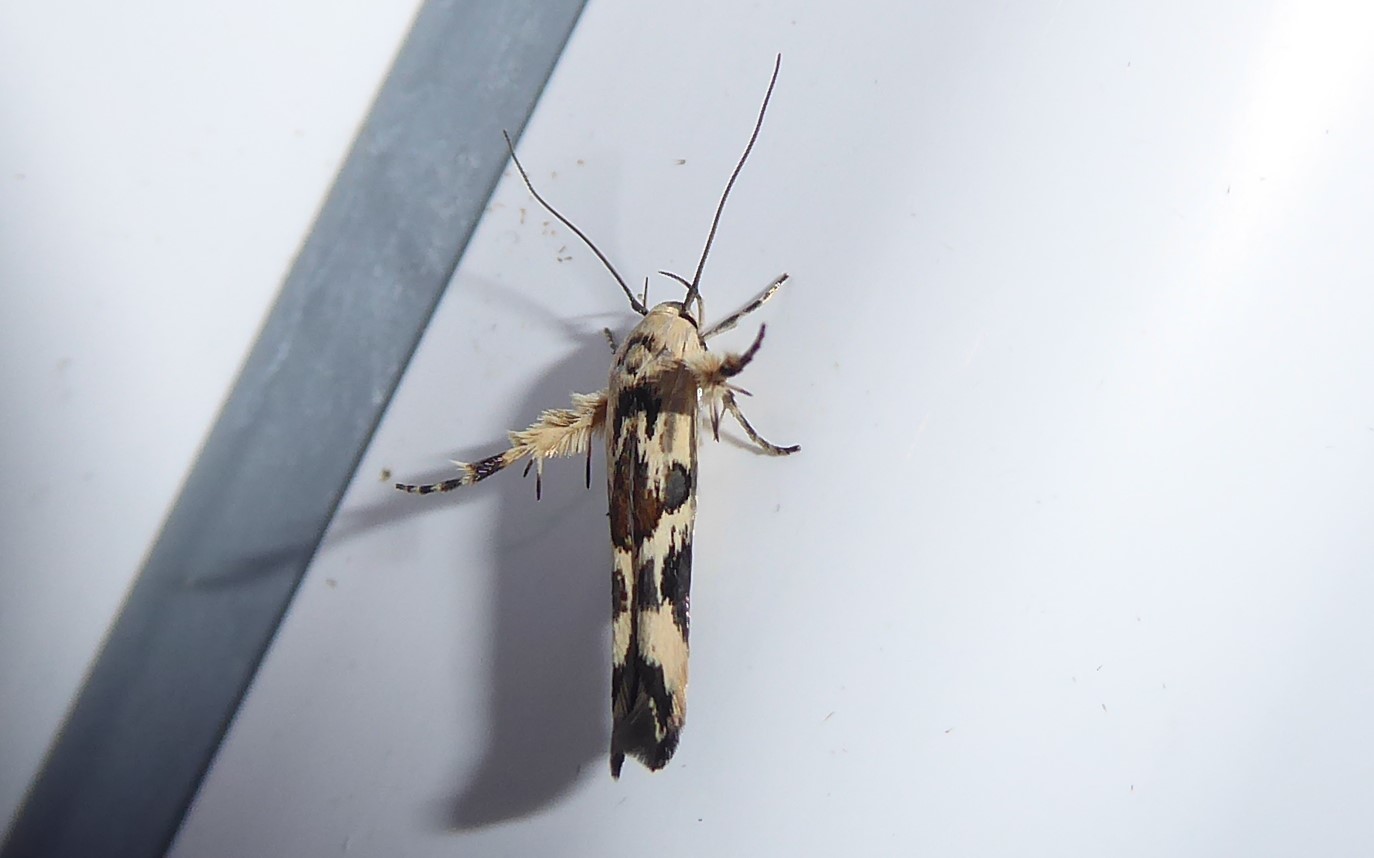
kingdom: Animalia
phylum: Arthropoda
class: Insecta
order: Lepidoptera
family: Stathmopodidae
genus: Stathmopoda
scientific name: Stathmopoda melanochra
